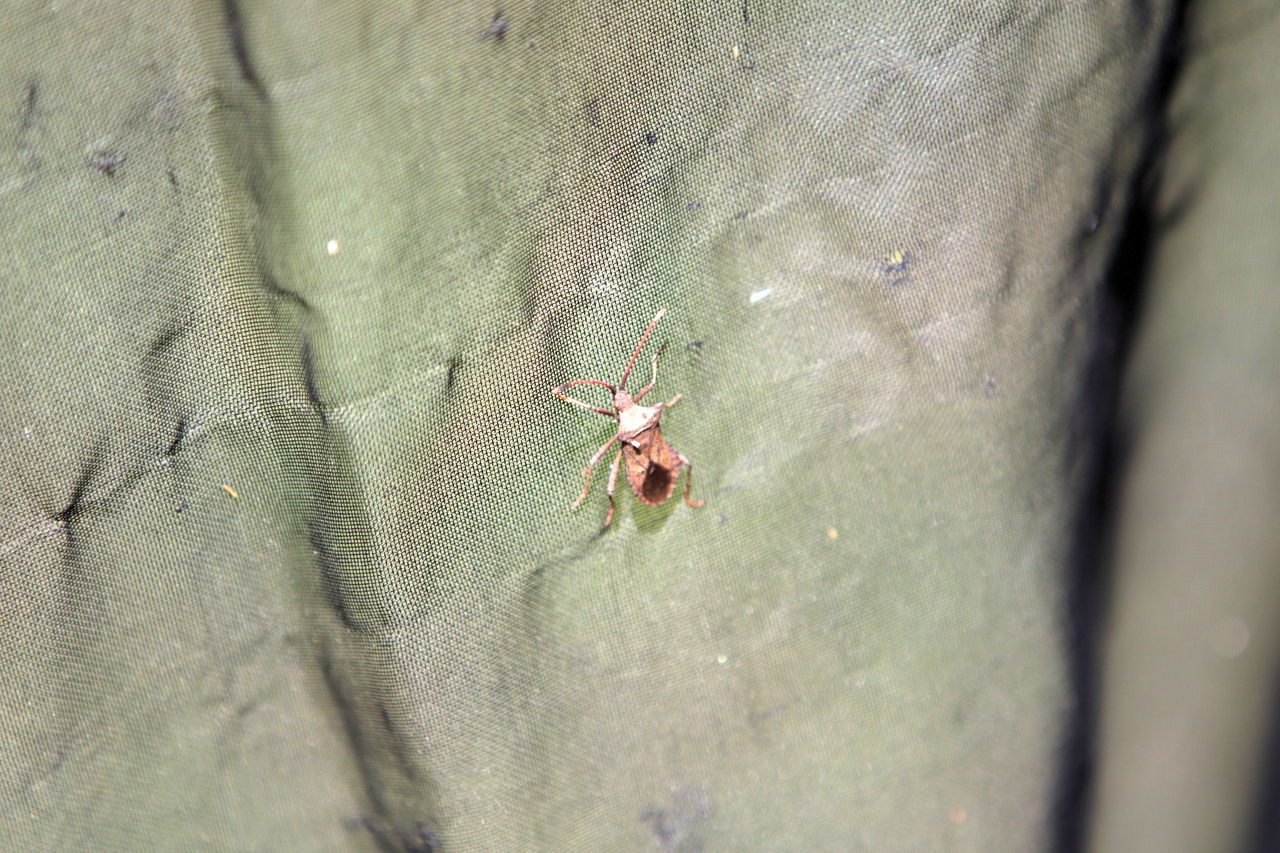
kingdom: Animalia
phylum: Arthropoda
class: Insecta
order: Hemiptera
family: Coreidae
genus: Coreus
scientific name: Coreus marginatus
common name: Dock bug
